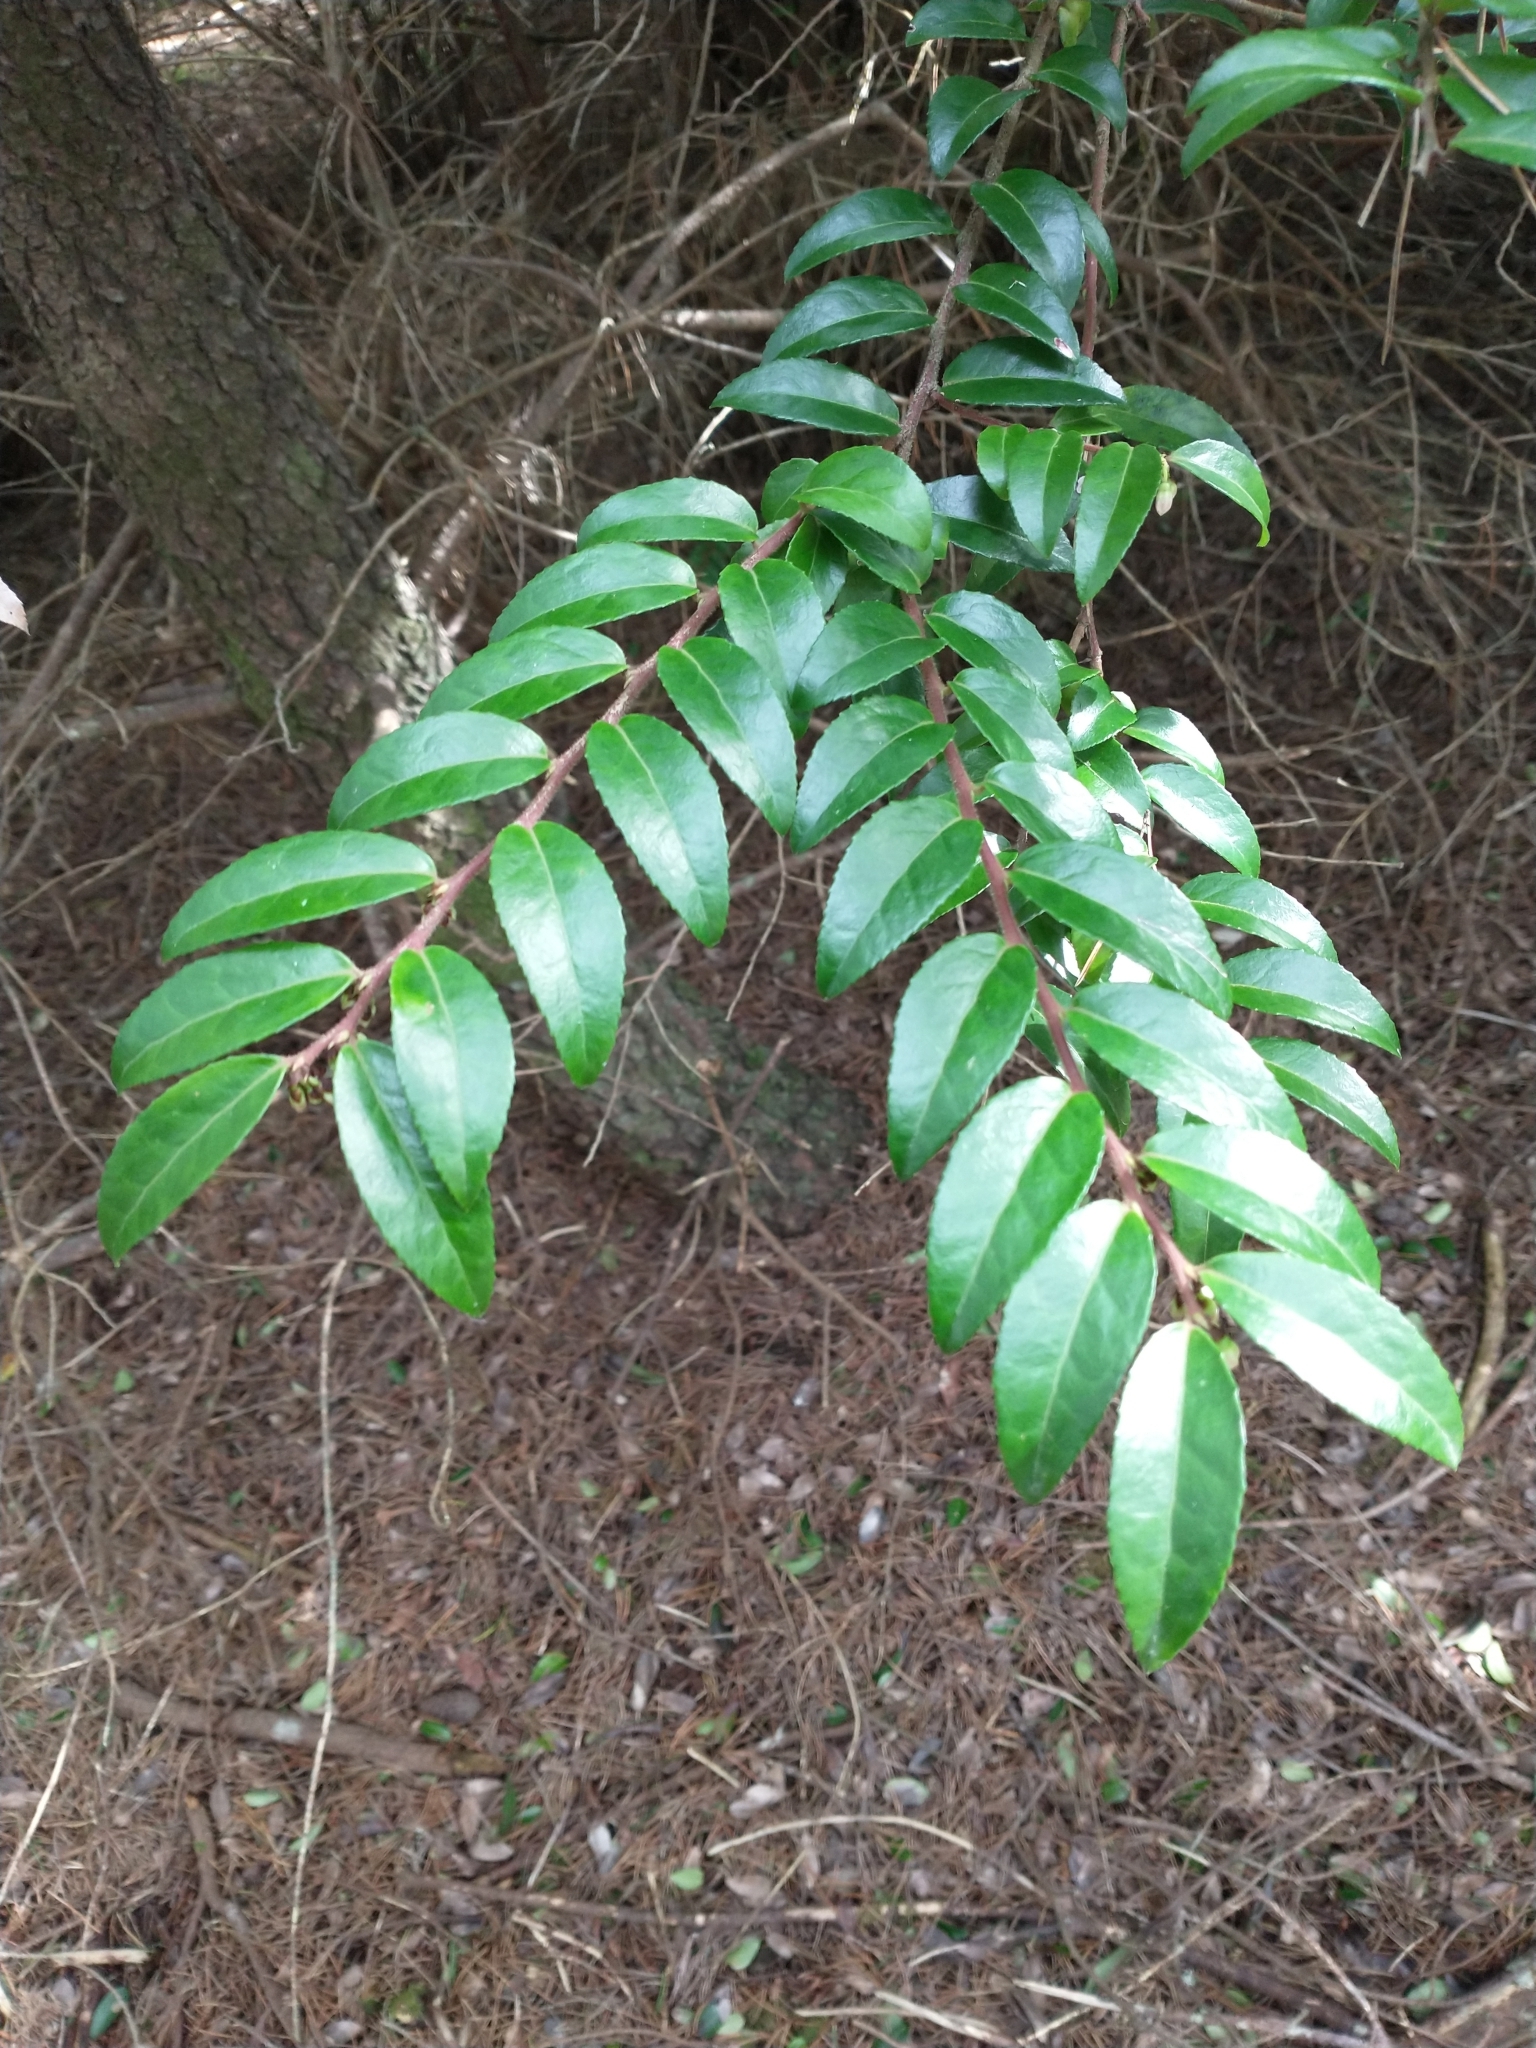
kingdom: Plantae
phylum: Tracheophyta
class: Magnoliopsida
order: Ericales
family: Ericaceae
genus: Vaccinium
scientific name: Vaccinium ovatum
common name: California-huckleberry
